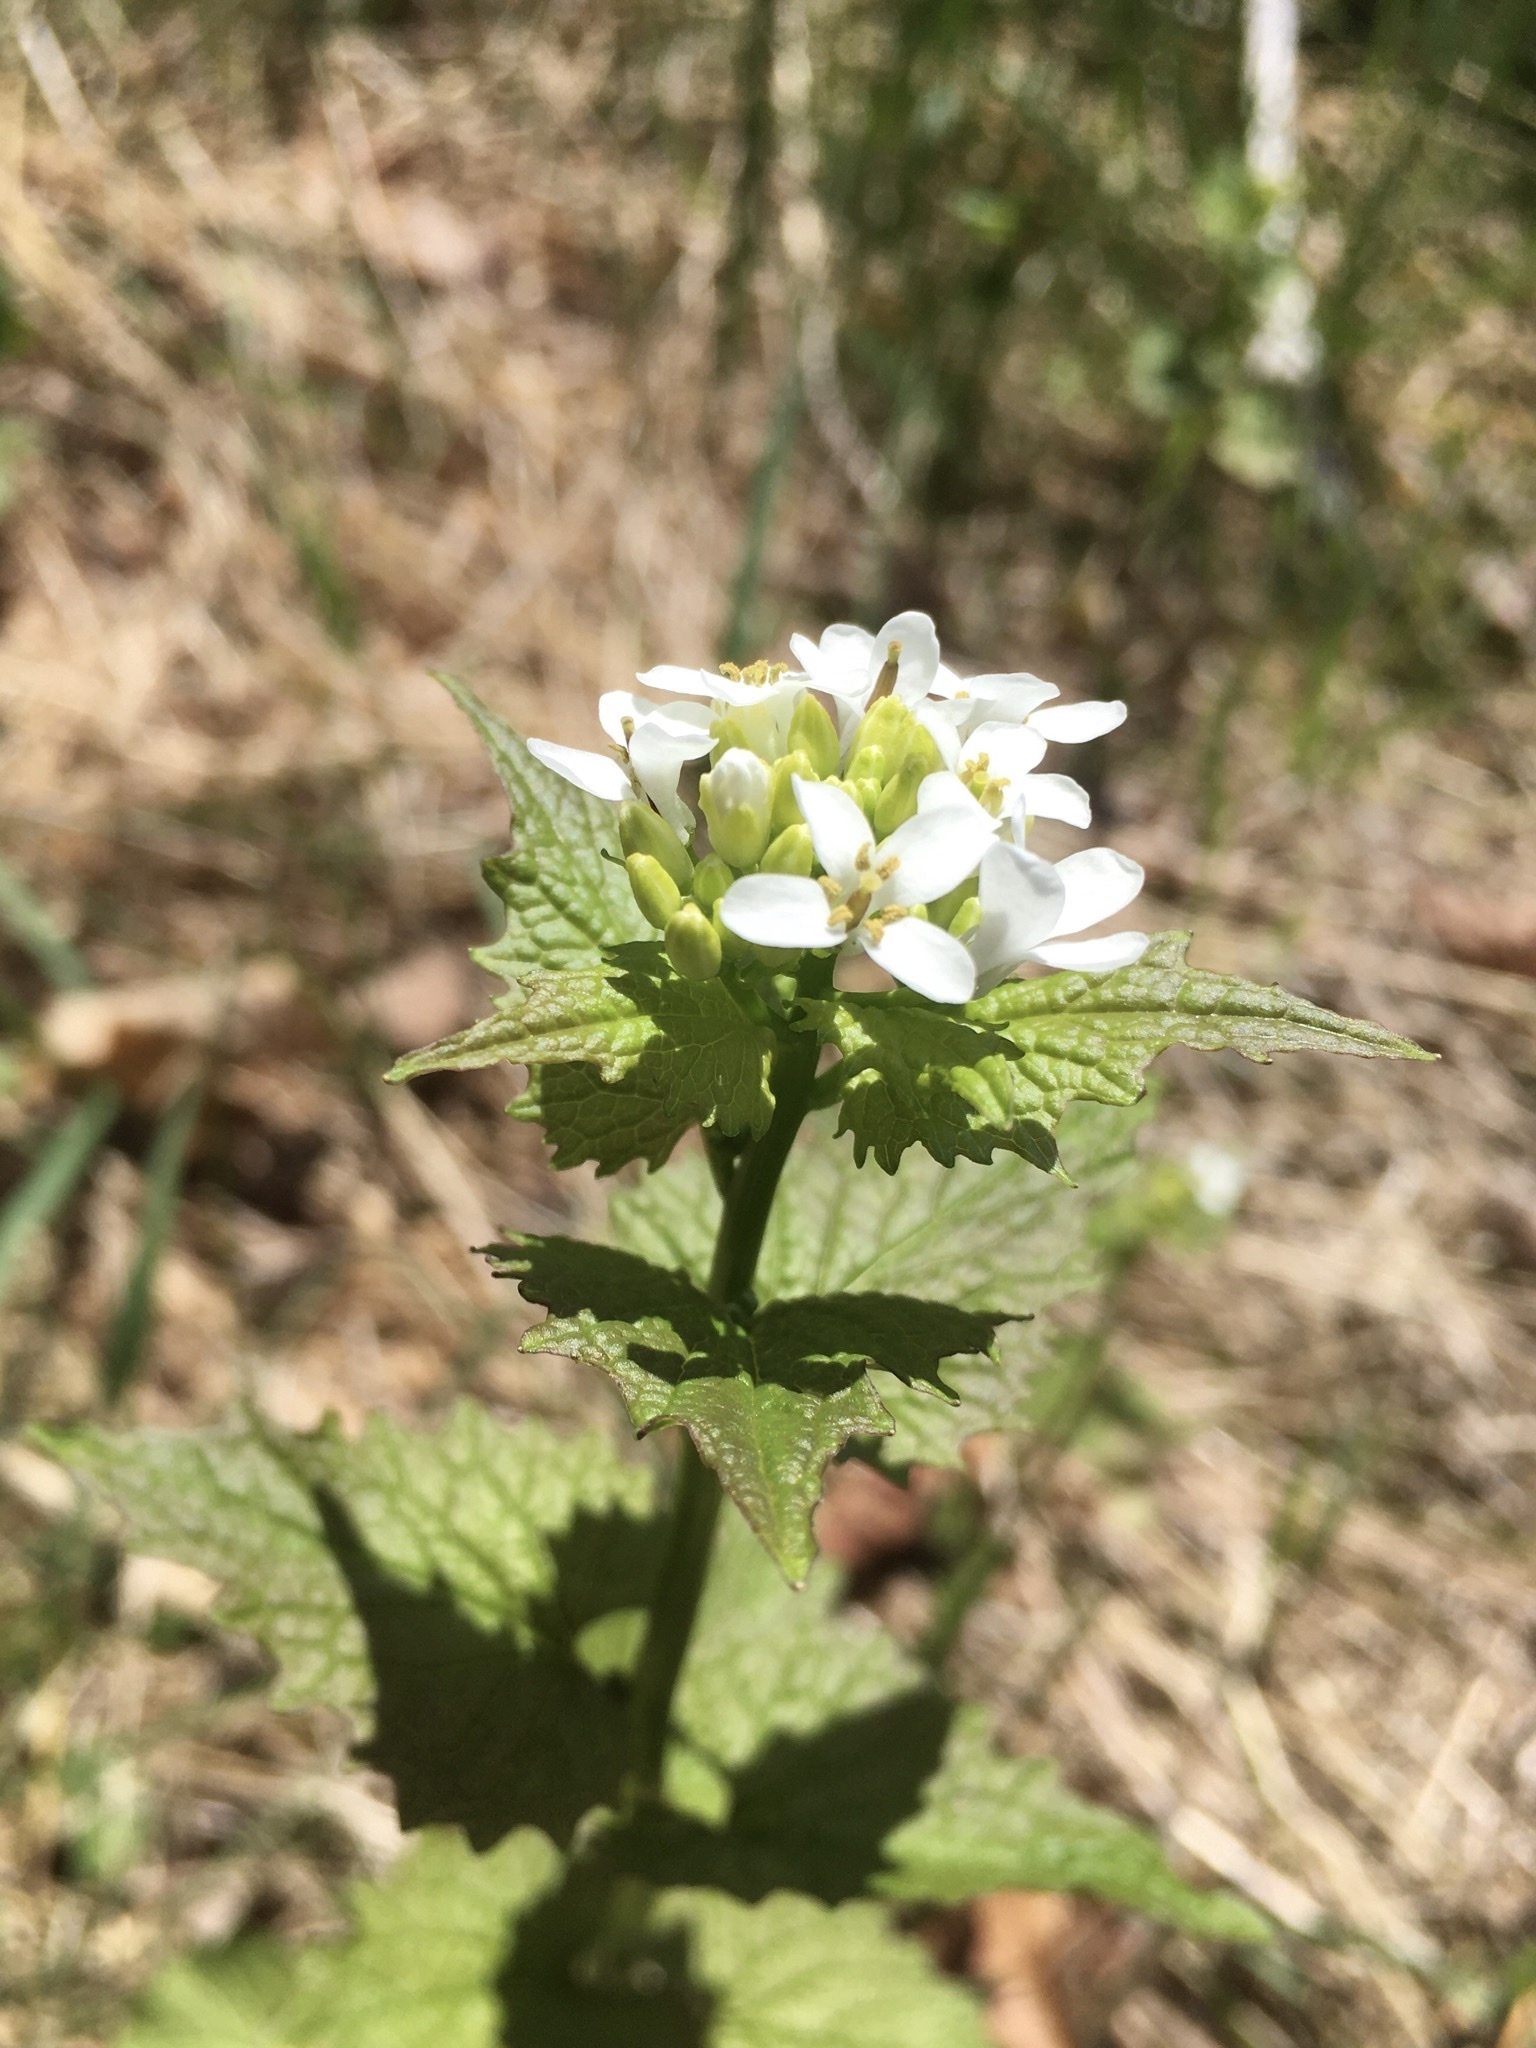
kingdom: Plantae
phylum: Tracheophyta
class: Magnoliopsida
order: Brassicales
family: Brassicaceae
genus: Alliaria
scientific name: Alliaria petiolata
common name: Garlic mustard
